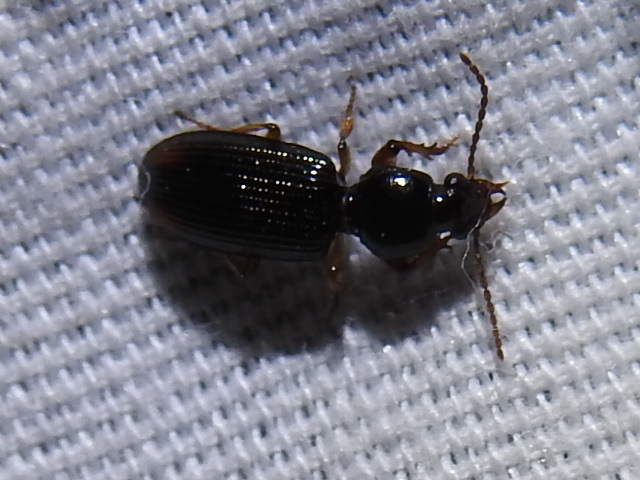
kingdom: Animalia
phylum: Arthropoda
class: Insecta
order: Coleoptera
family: Carabidae
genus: Aspidoglossa
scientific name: Aspidoglossa subangulata
